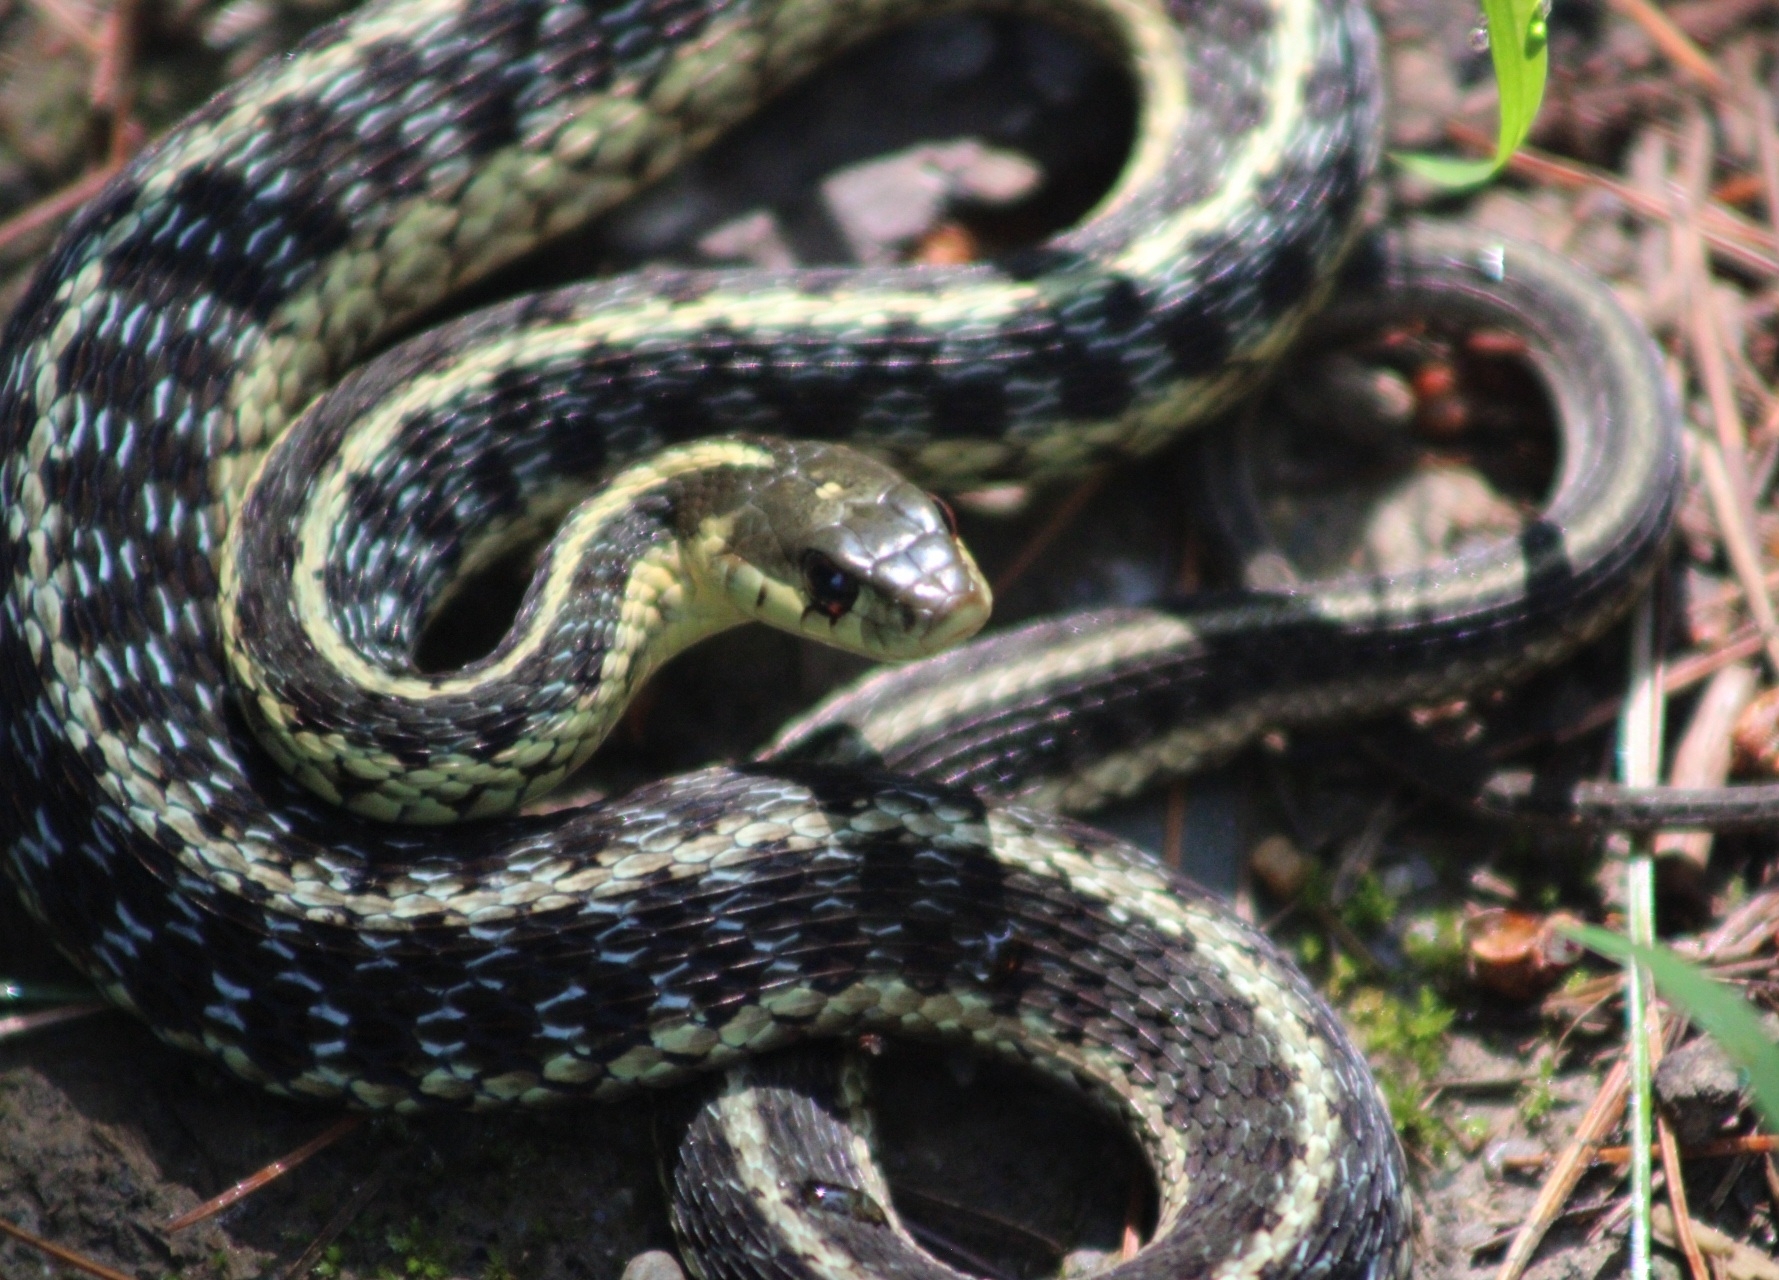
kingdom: Animalia
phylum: Chordata
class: Squamata
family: Colubridae
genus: Thamnophis
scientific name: Thamnophis sirtalis
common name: Common garter snake
